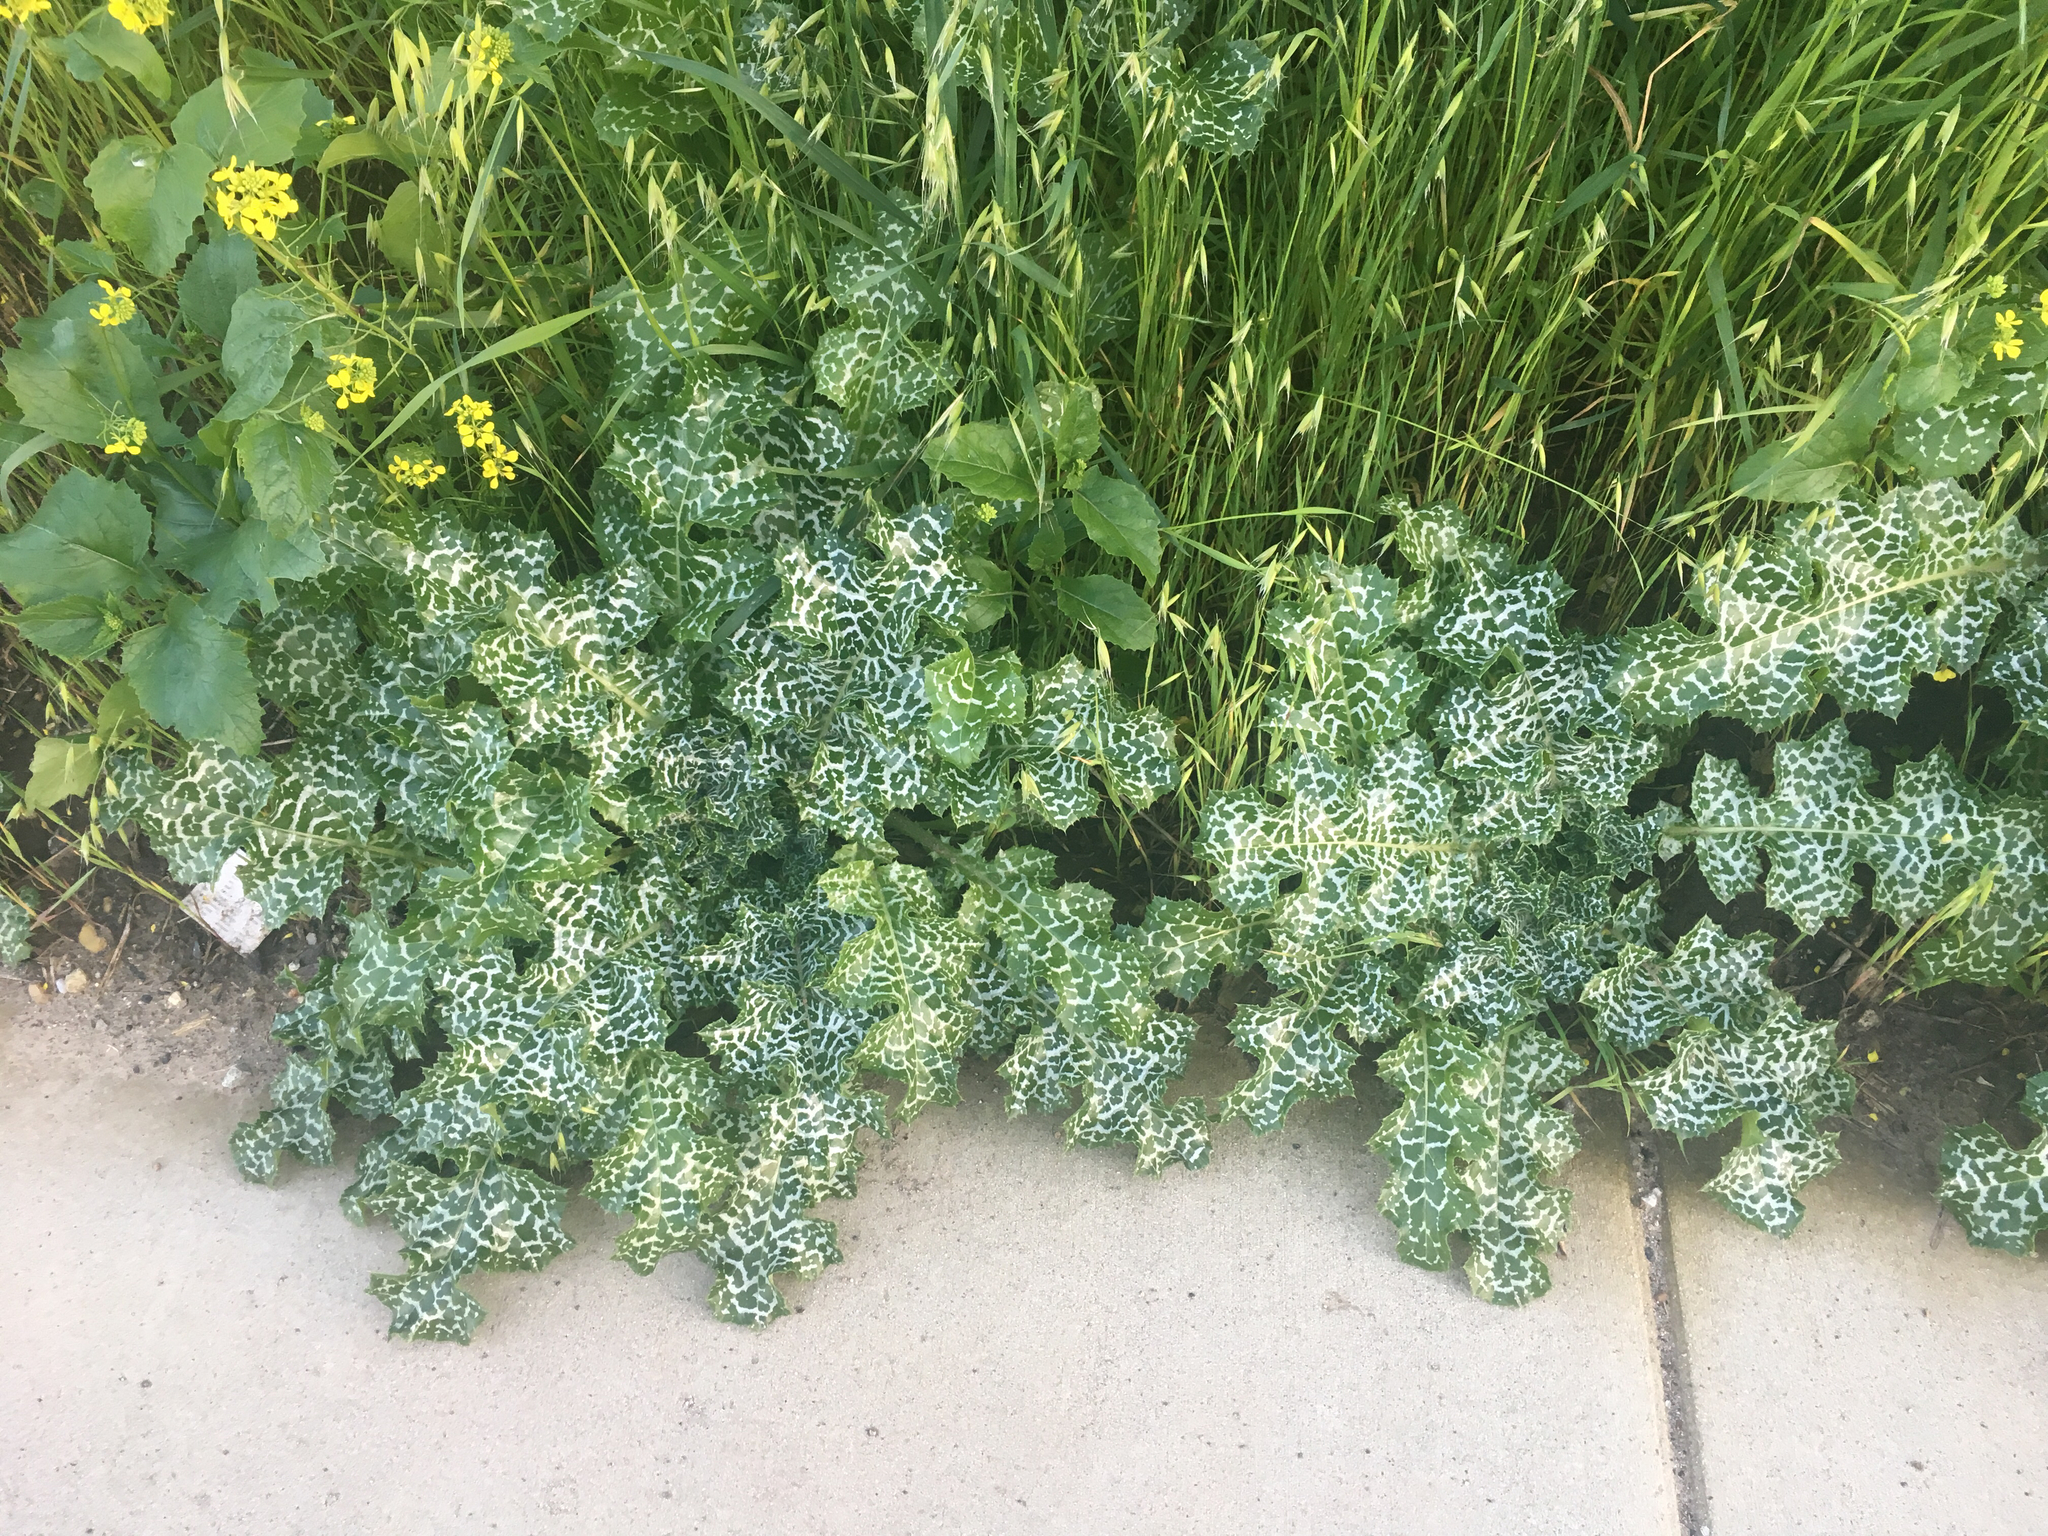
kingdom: Plantae
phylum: Tracheophyta
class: Magnoliopsida
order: Asterales
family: Asteraceae
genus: Silybum
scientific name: Silybum marianum
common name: Milk thistle
